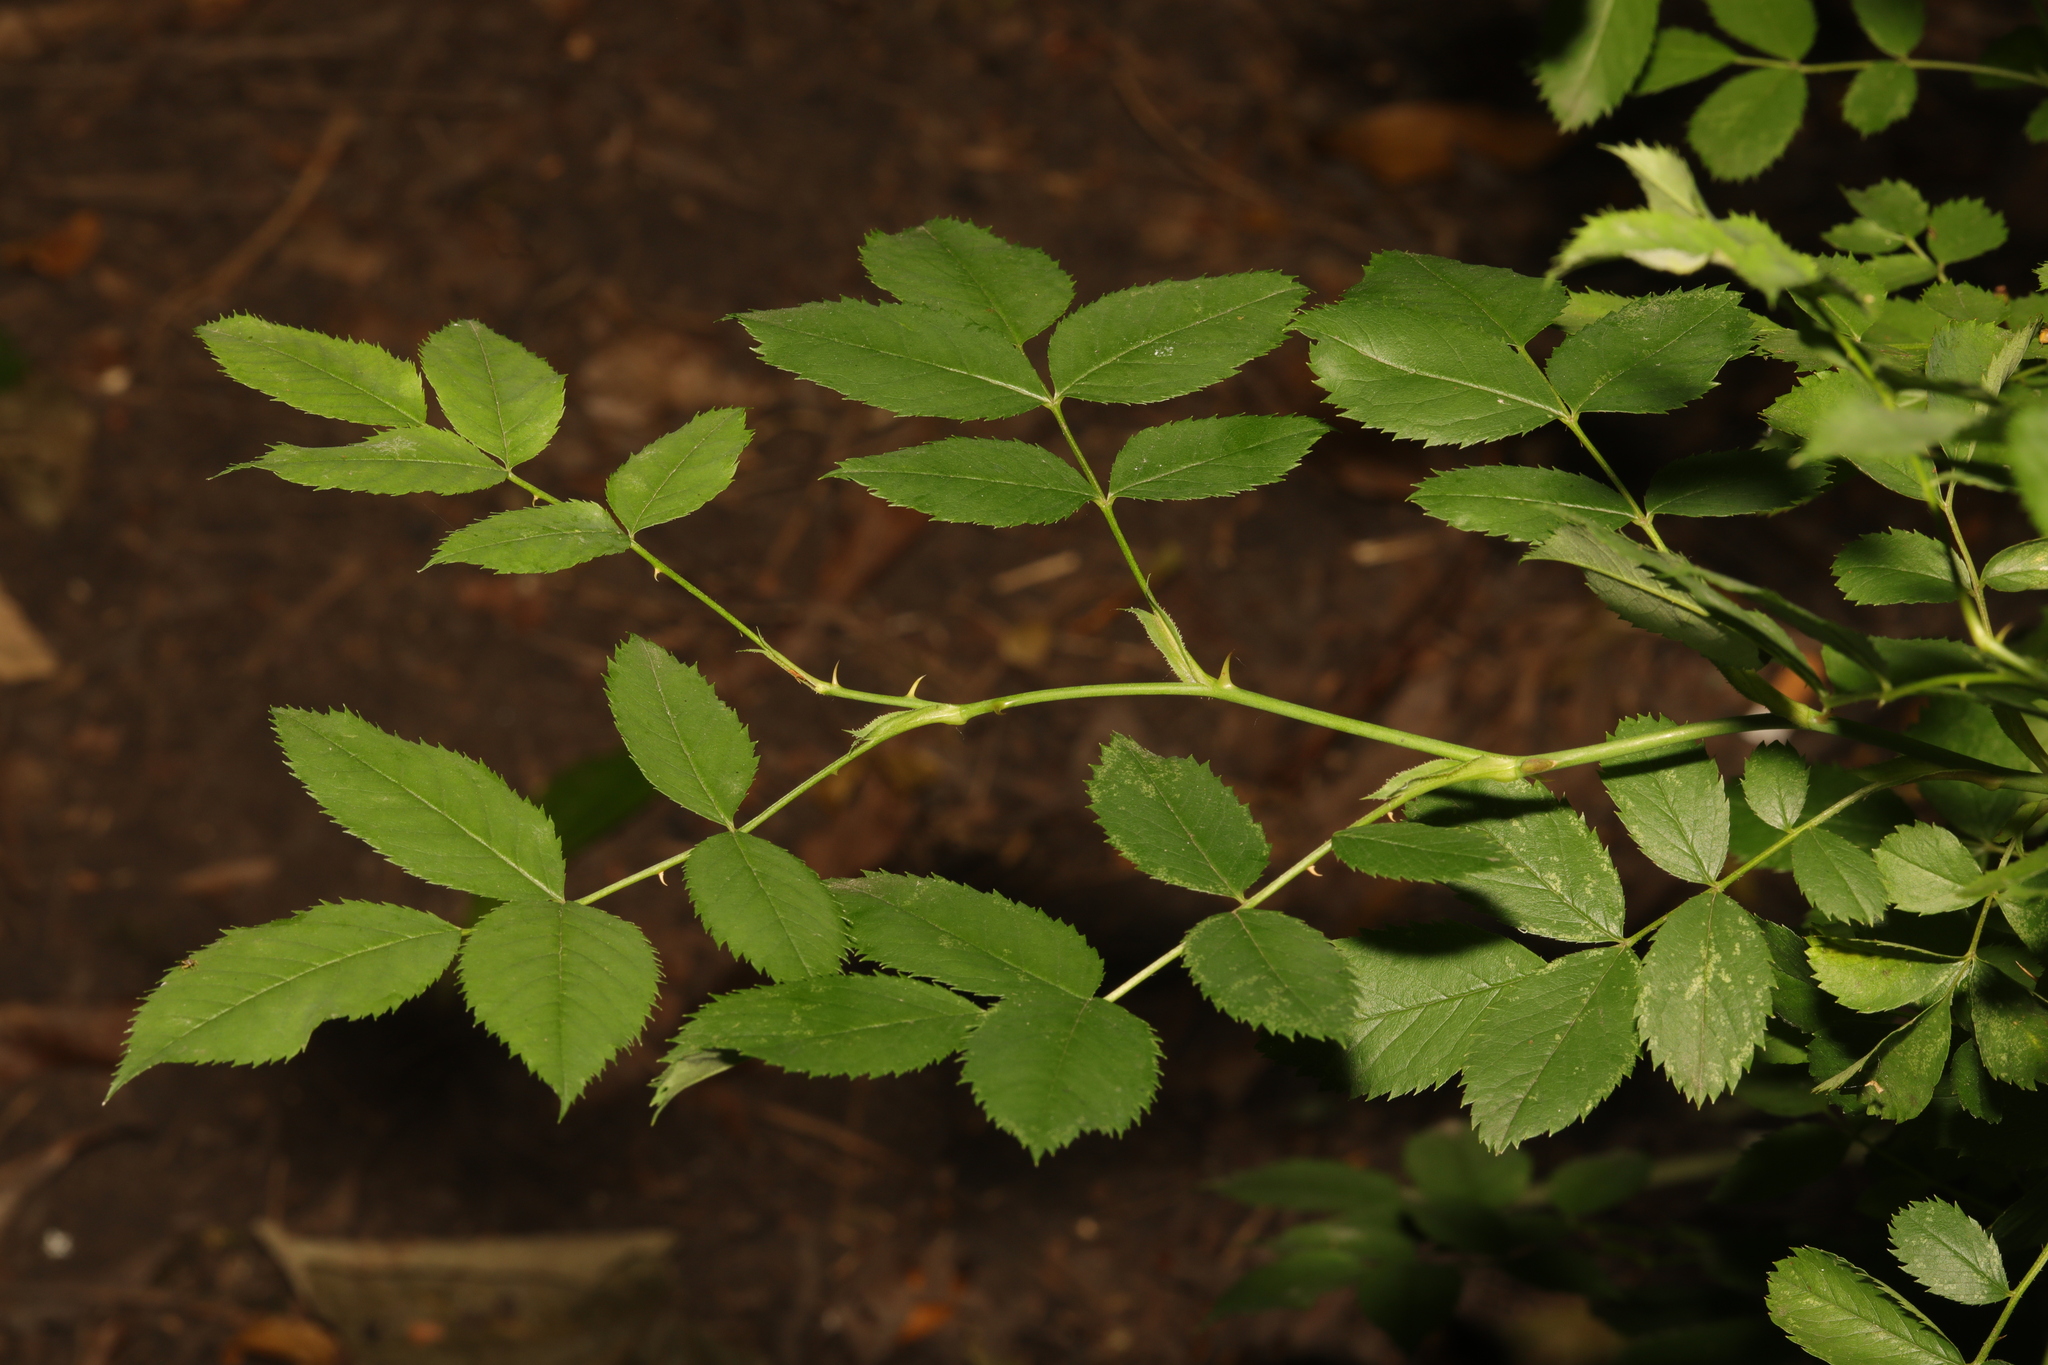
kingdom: Plantae
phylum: Tracheophyta
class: Magnoliopsida
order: Rosales
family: Rosaceae
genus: Rosa
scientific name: Rosa canina
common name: Dog rose
